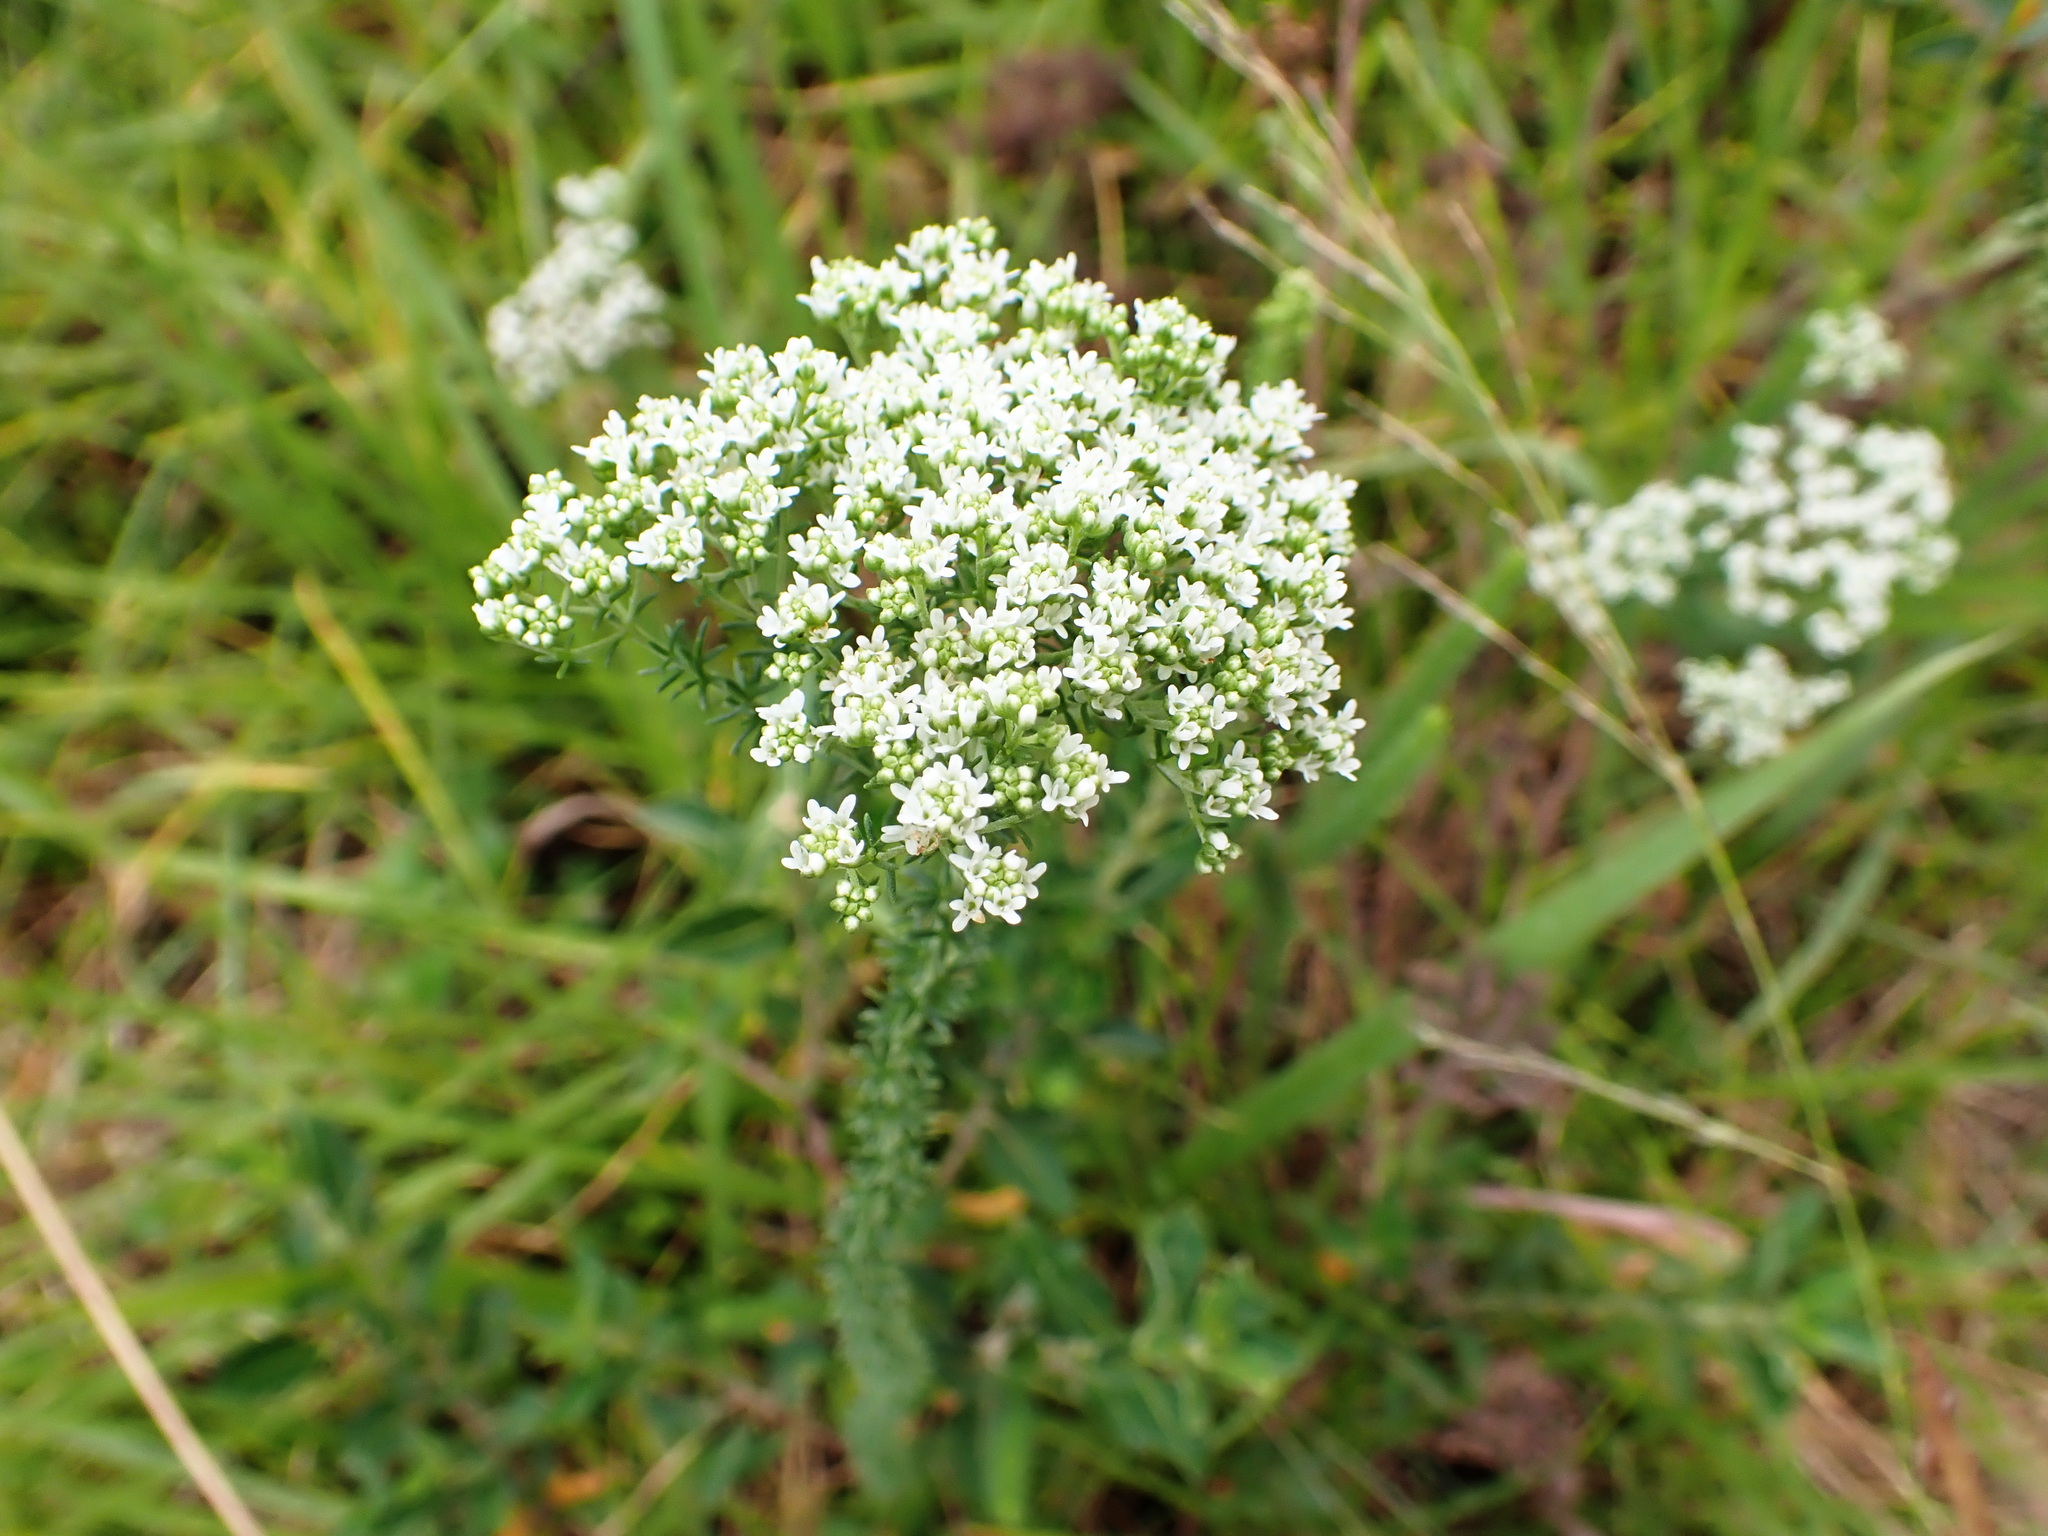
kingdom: Plantae
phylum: Tracheophyta
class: Magnoliopsida
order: Lamiales
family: Scrophulariaceae
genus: Selago
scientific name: Selago corymbosa
